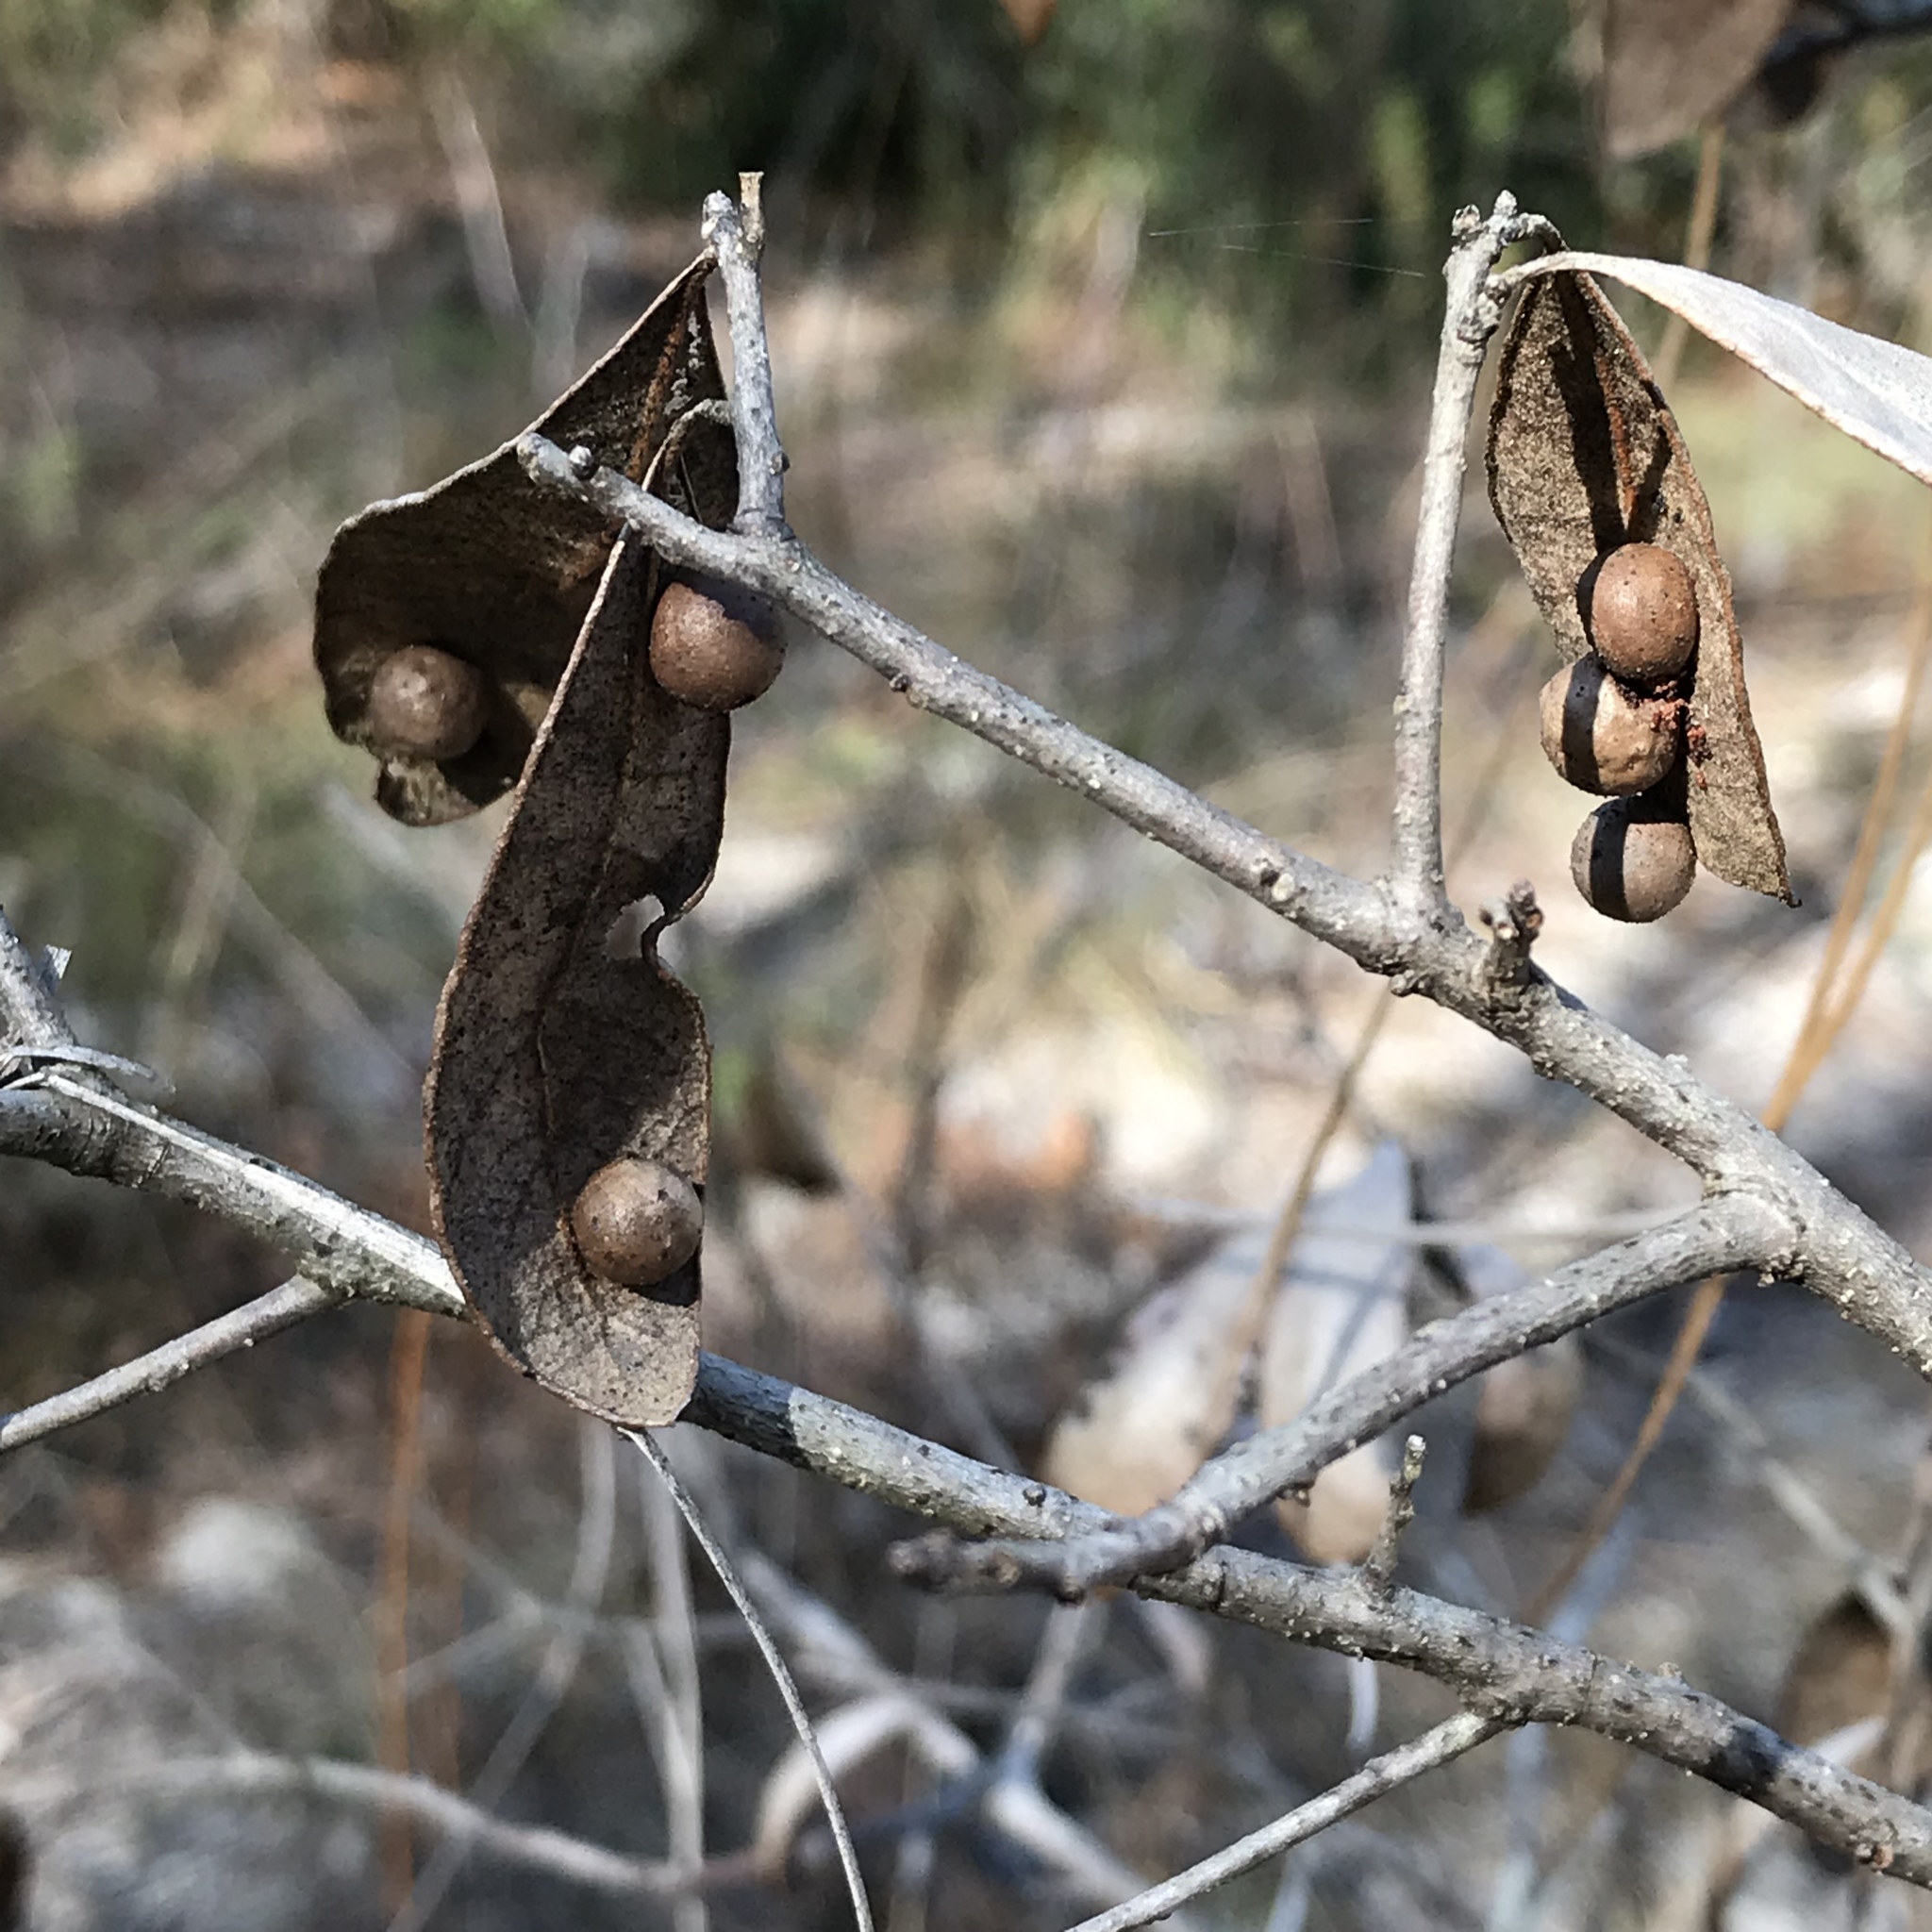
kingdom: Animalia
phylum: Arthropoda
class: Insecta
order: Hymenoptera
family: Cynipidae
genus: Belonocnema
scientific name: Belonocnema treatae
